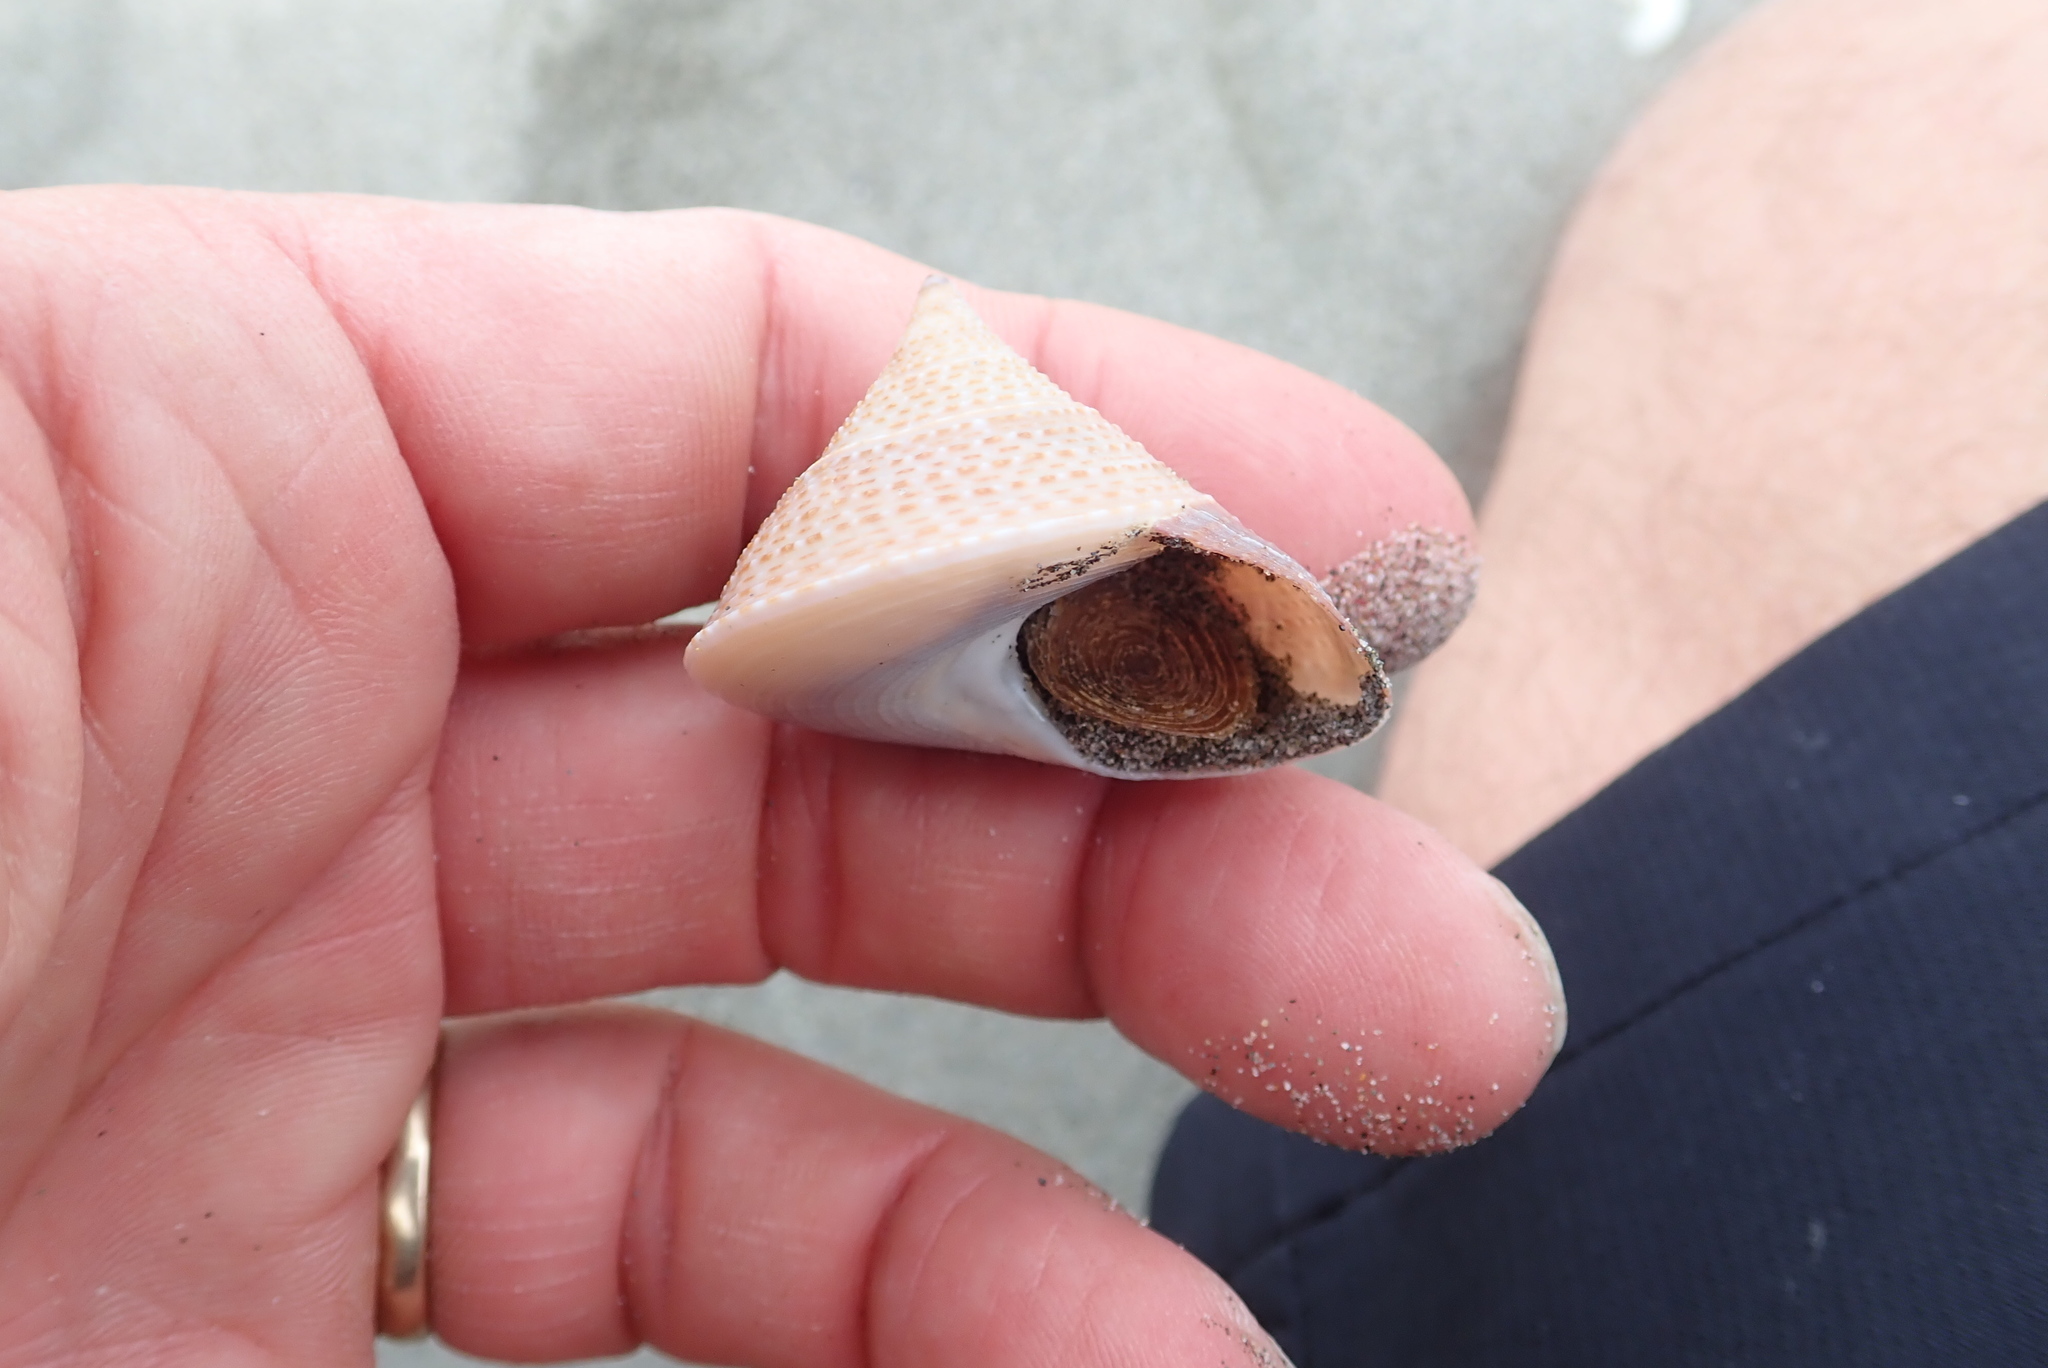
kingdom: Animalia
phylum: Mollusca
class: Gastropoda
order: Trochida
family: Calliostomatidae
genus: Maurea
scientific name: Maurea selecta
